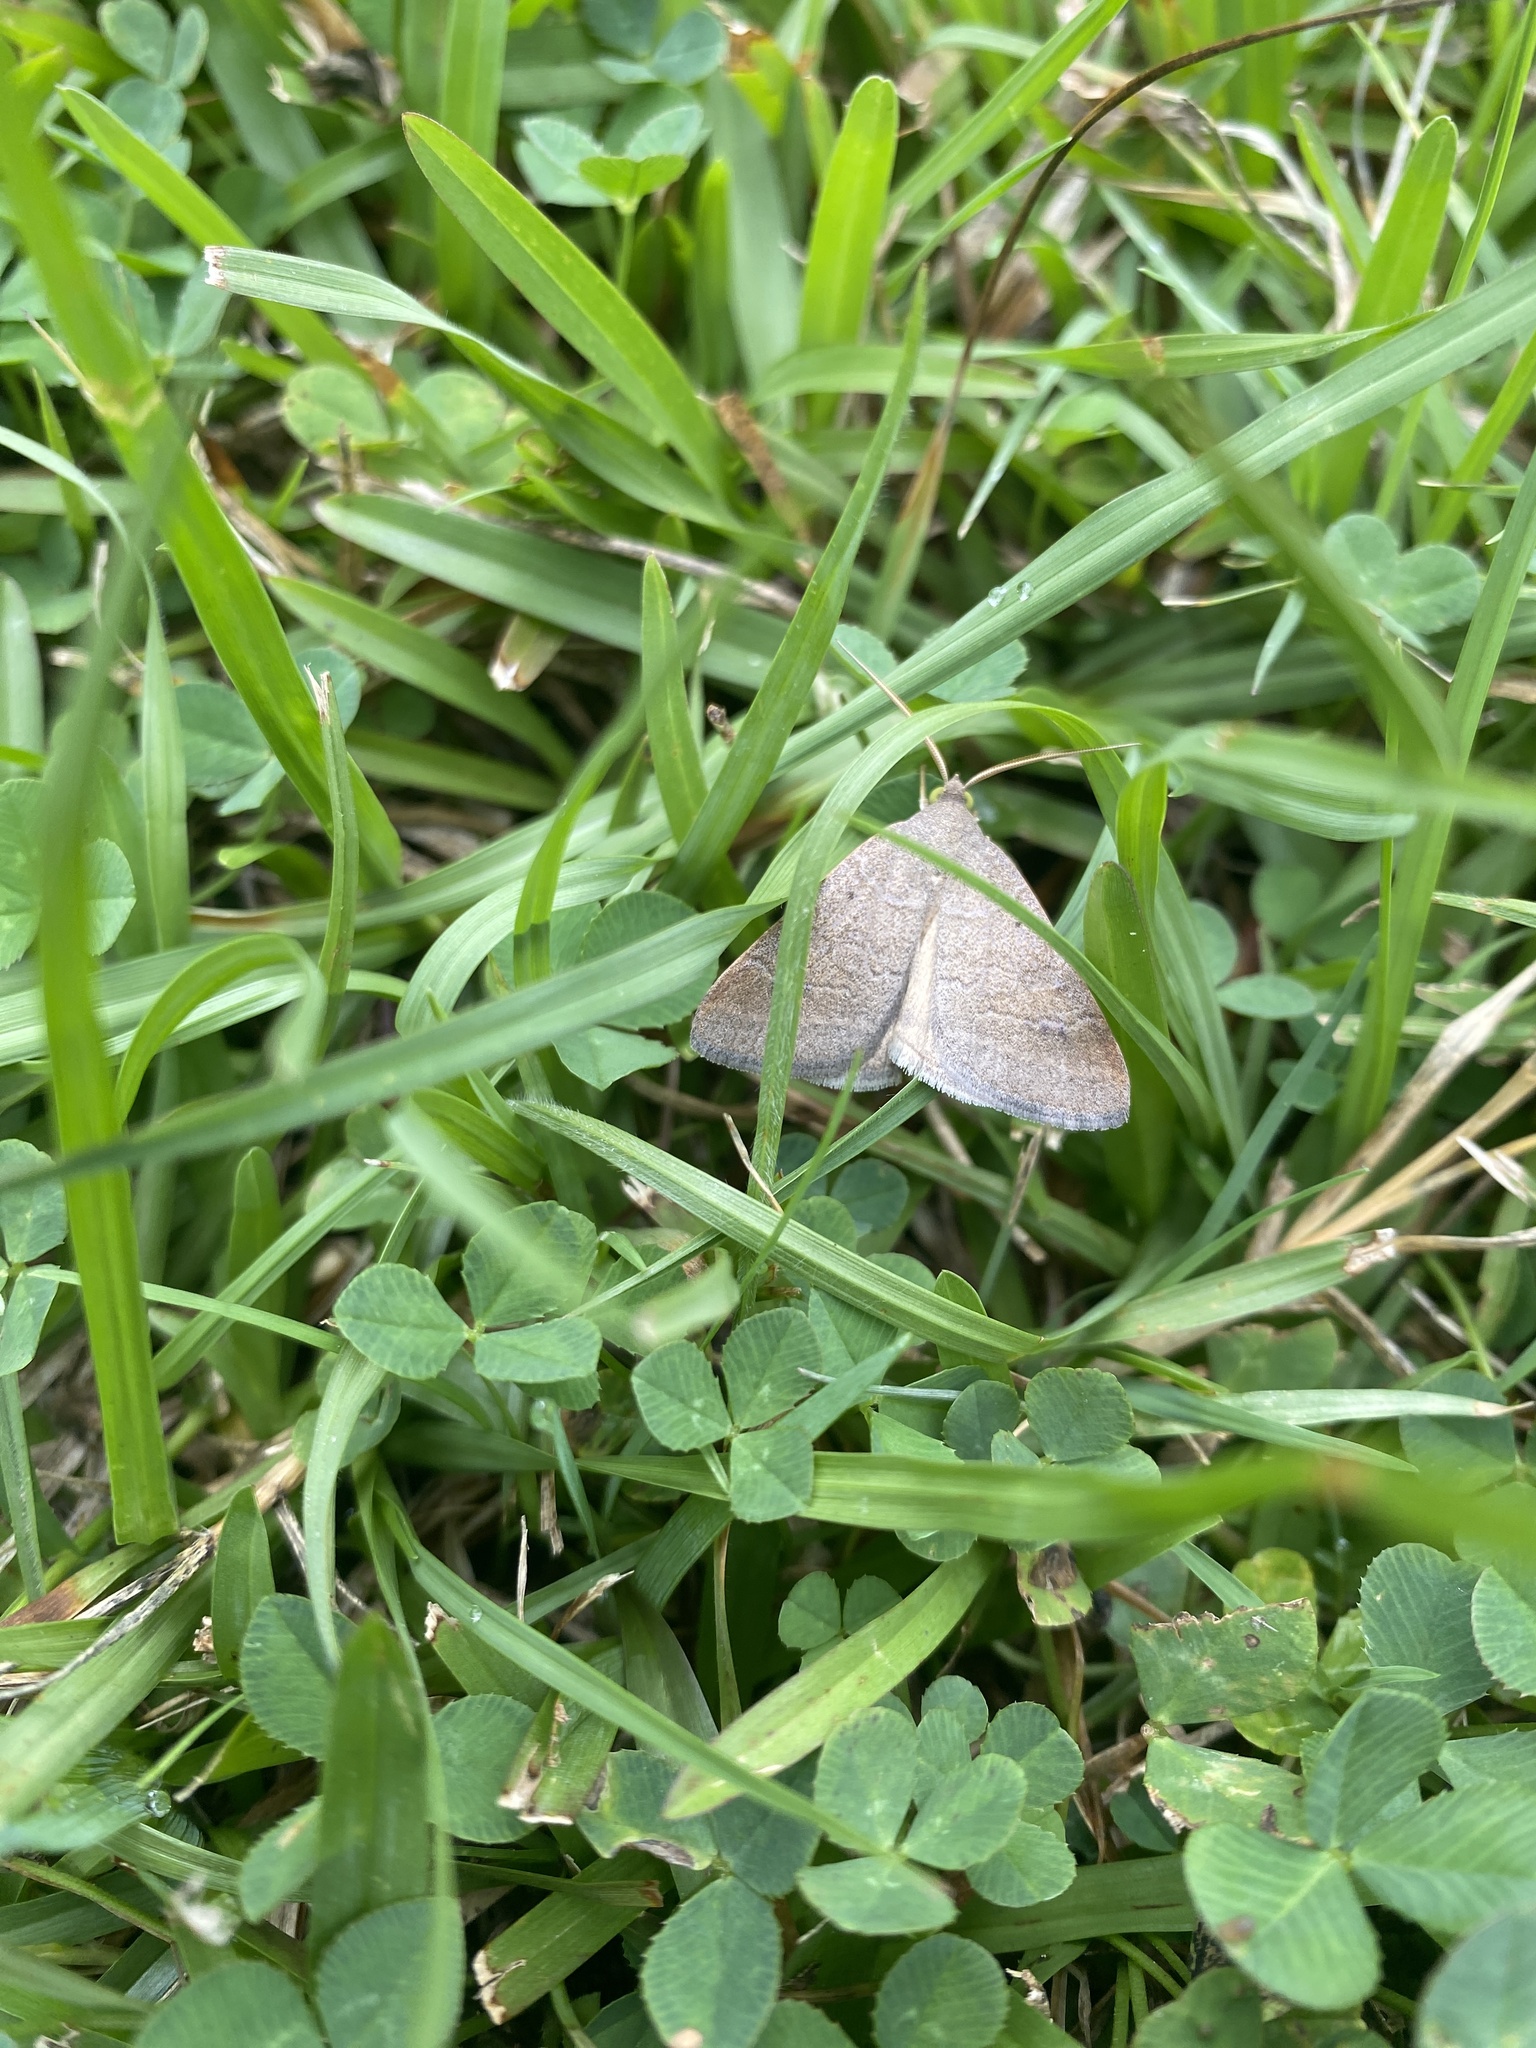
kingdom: Animalia
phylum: Arthropoda
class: Insecta
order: Lepidoptera
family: Erebidae
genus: Caenurgia
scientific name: Caenurgia chloropha
